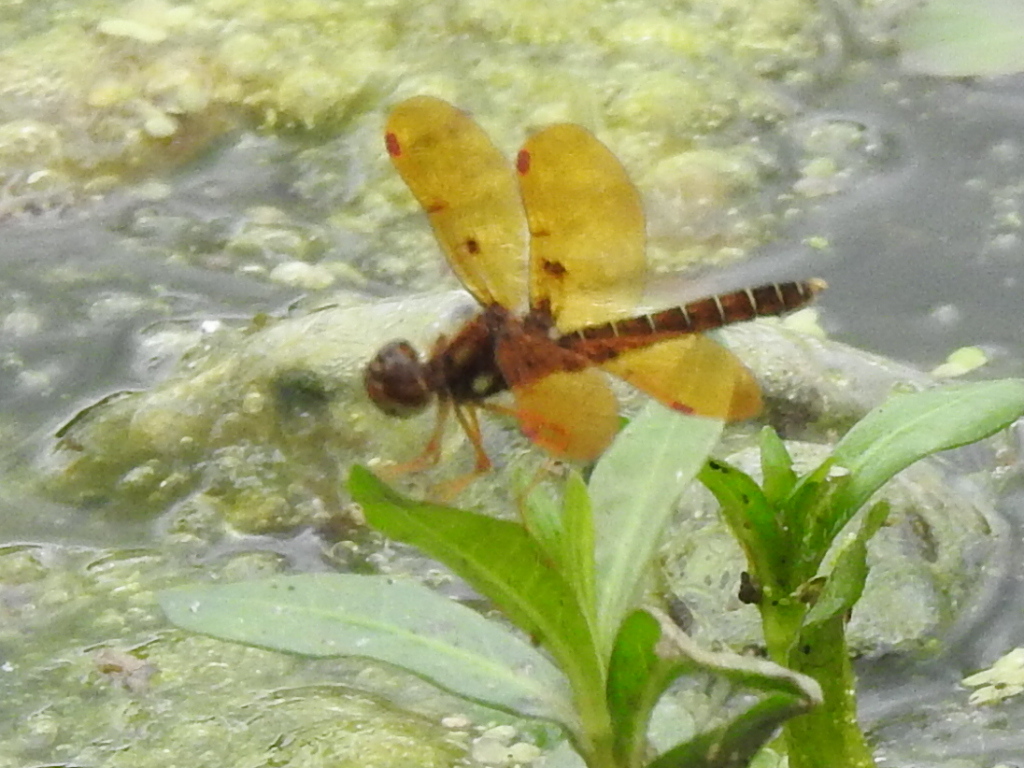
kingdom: Animalia
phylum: Arthropoda
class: Insecta
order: Odonata
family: Libellulidae
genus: Perithemis
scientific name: Perithemis tenera
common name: Eastern amberwing
